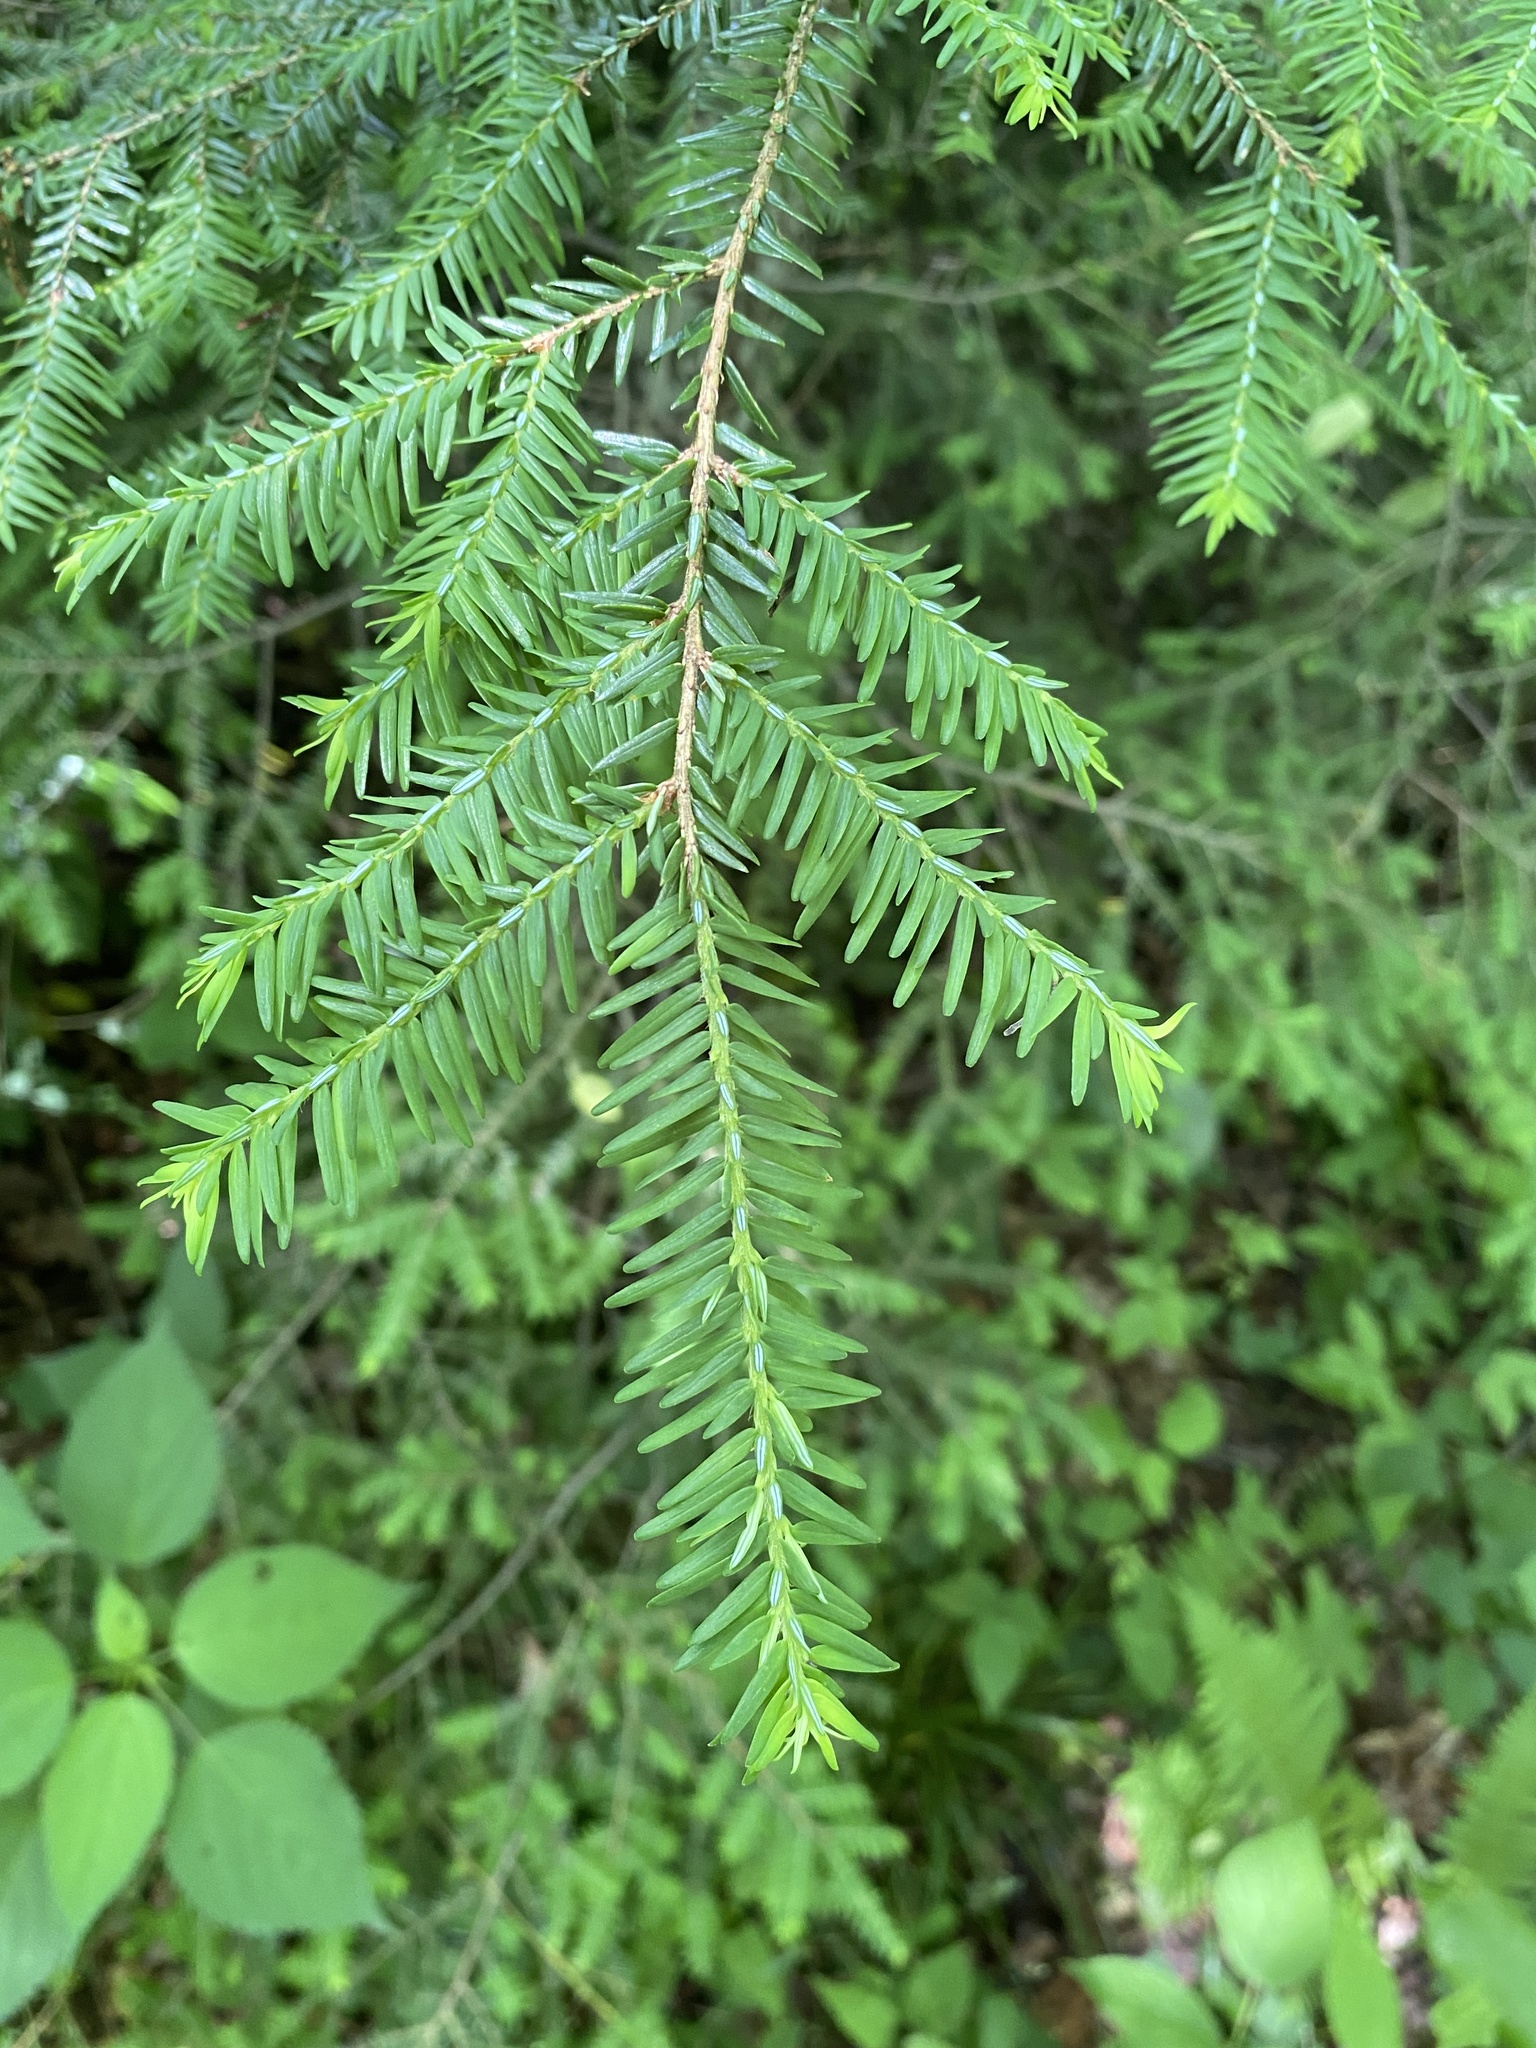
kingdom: Plantae
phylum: Tracheophyta
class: Pinopsida
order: Pinales
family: Pinaceae
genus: Tsuga
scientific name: Tsuga canadensis
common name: Eastern hemlock
